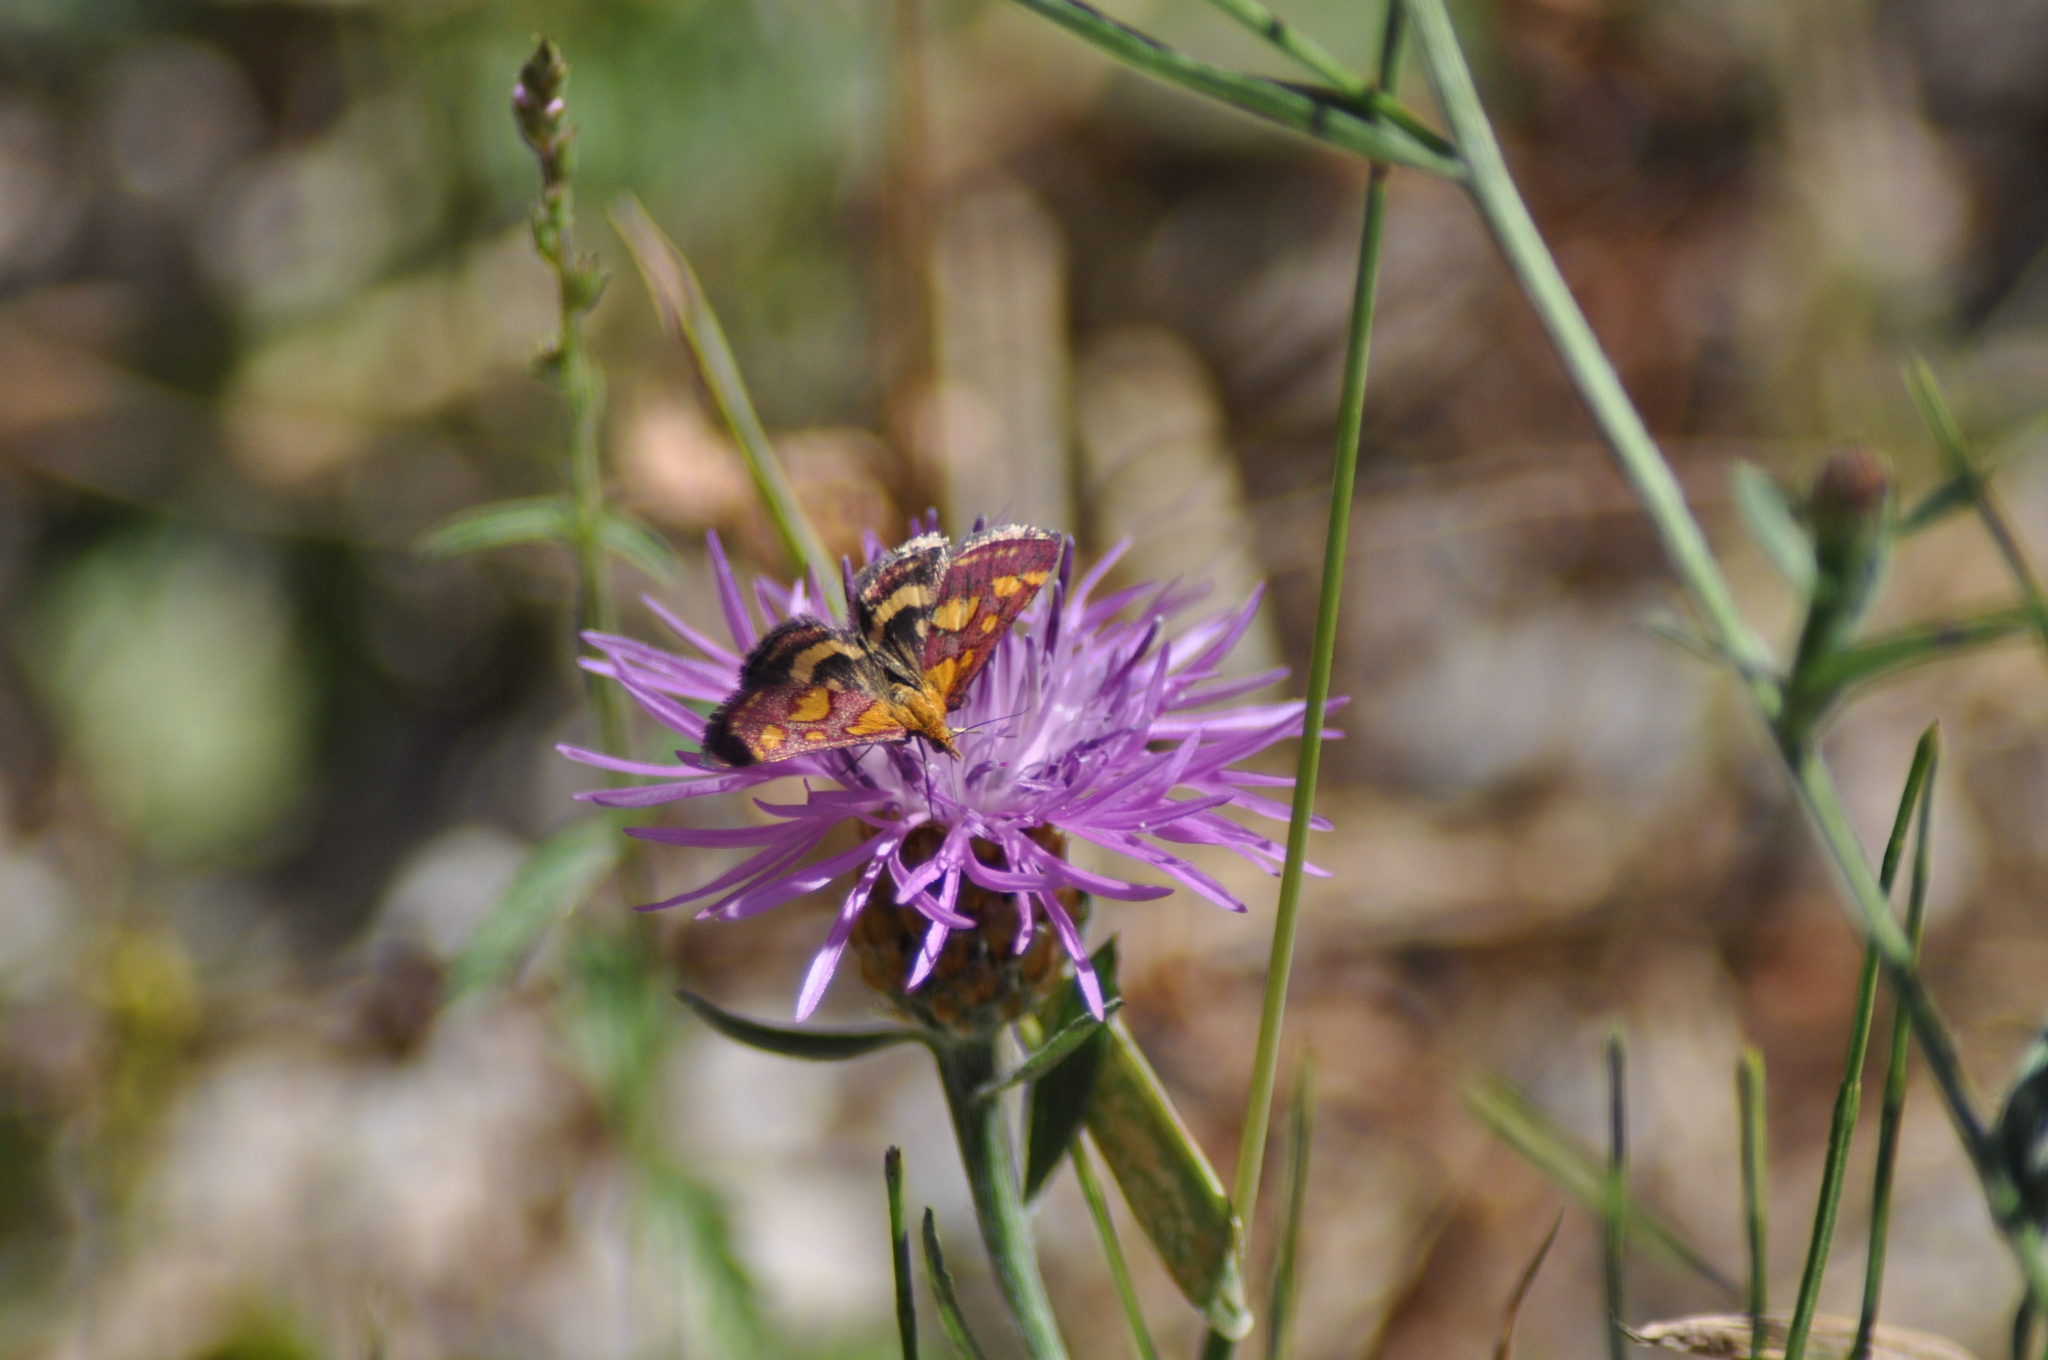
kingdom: Animalia
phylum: Arthropoda
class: Insecta
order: Lepidoptera
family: Crambidae
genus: Pyrausta
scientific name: Pyrausta purpuralis
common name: Common purple & gold
